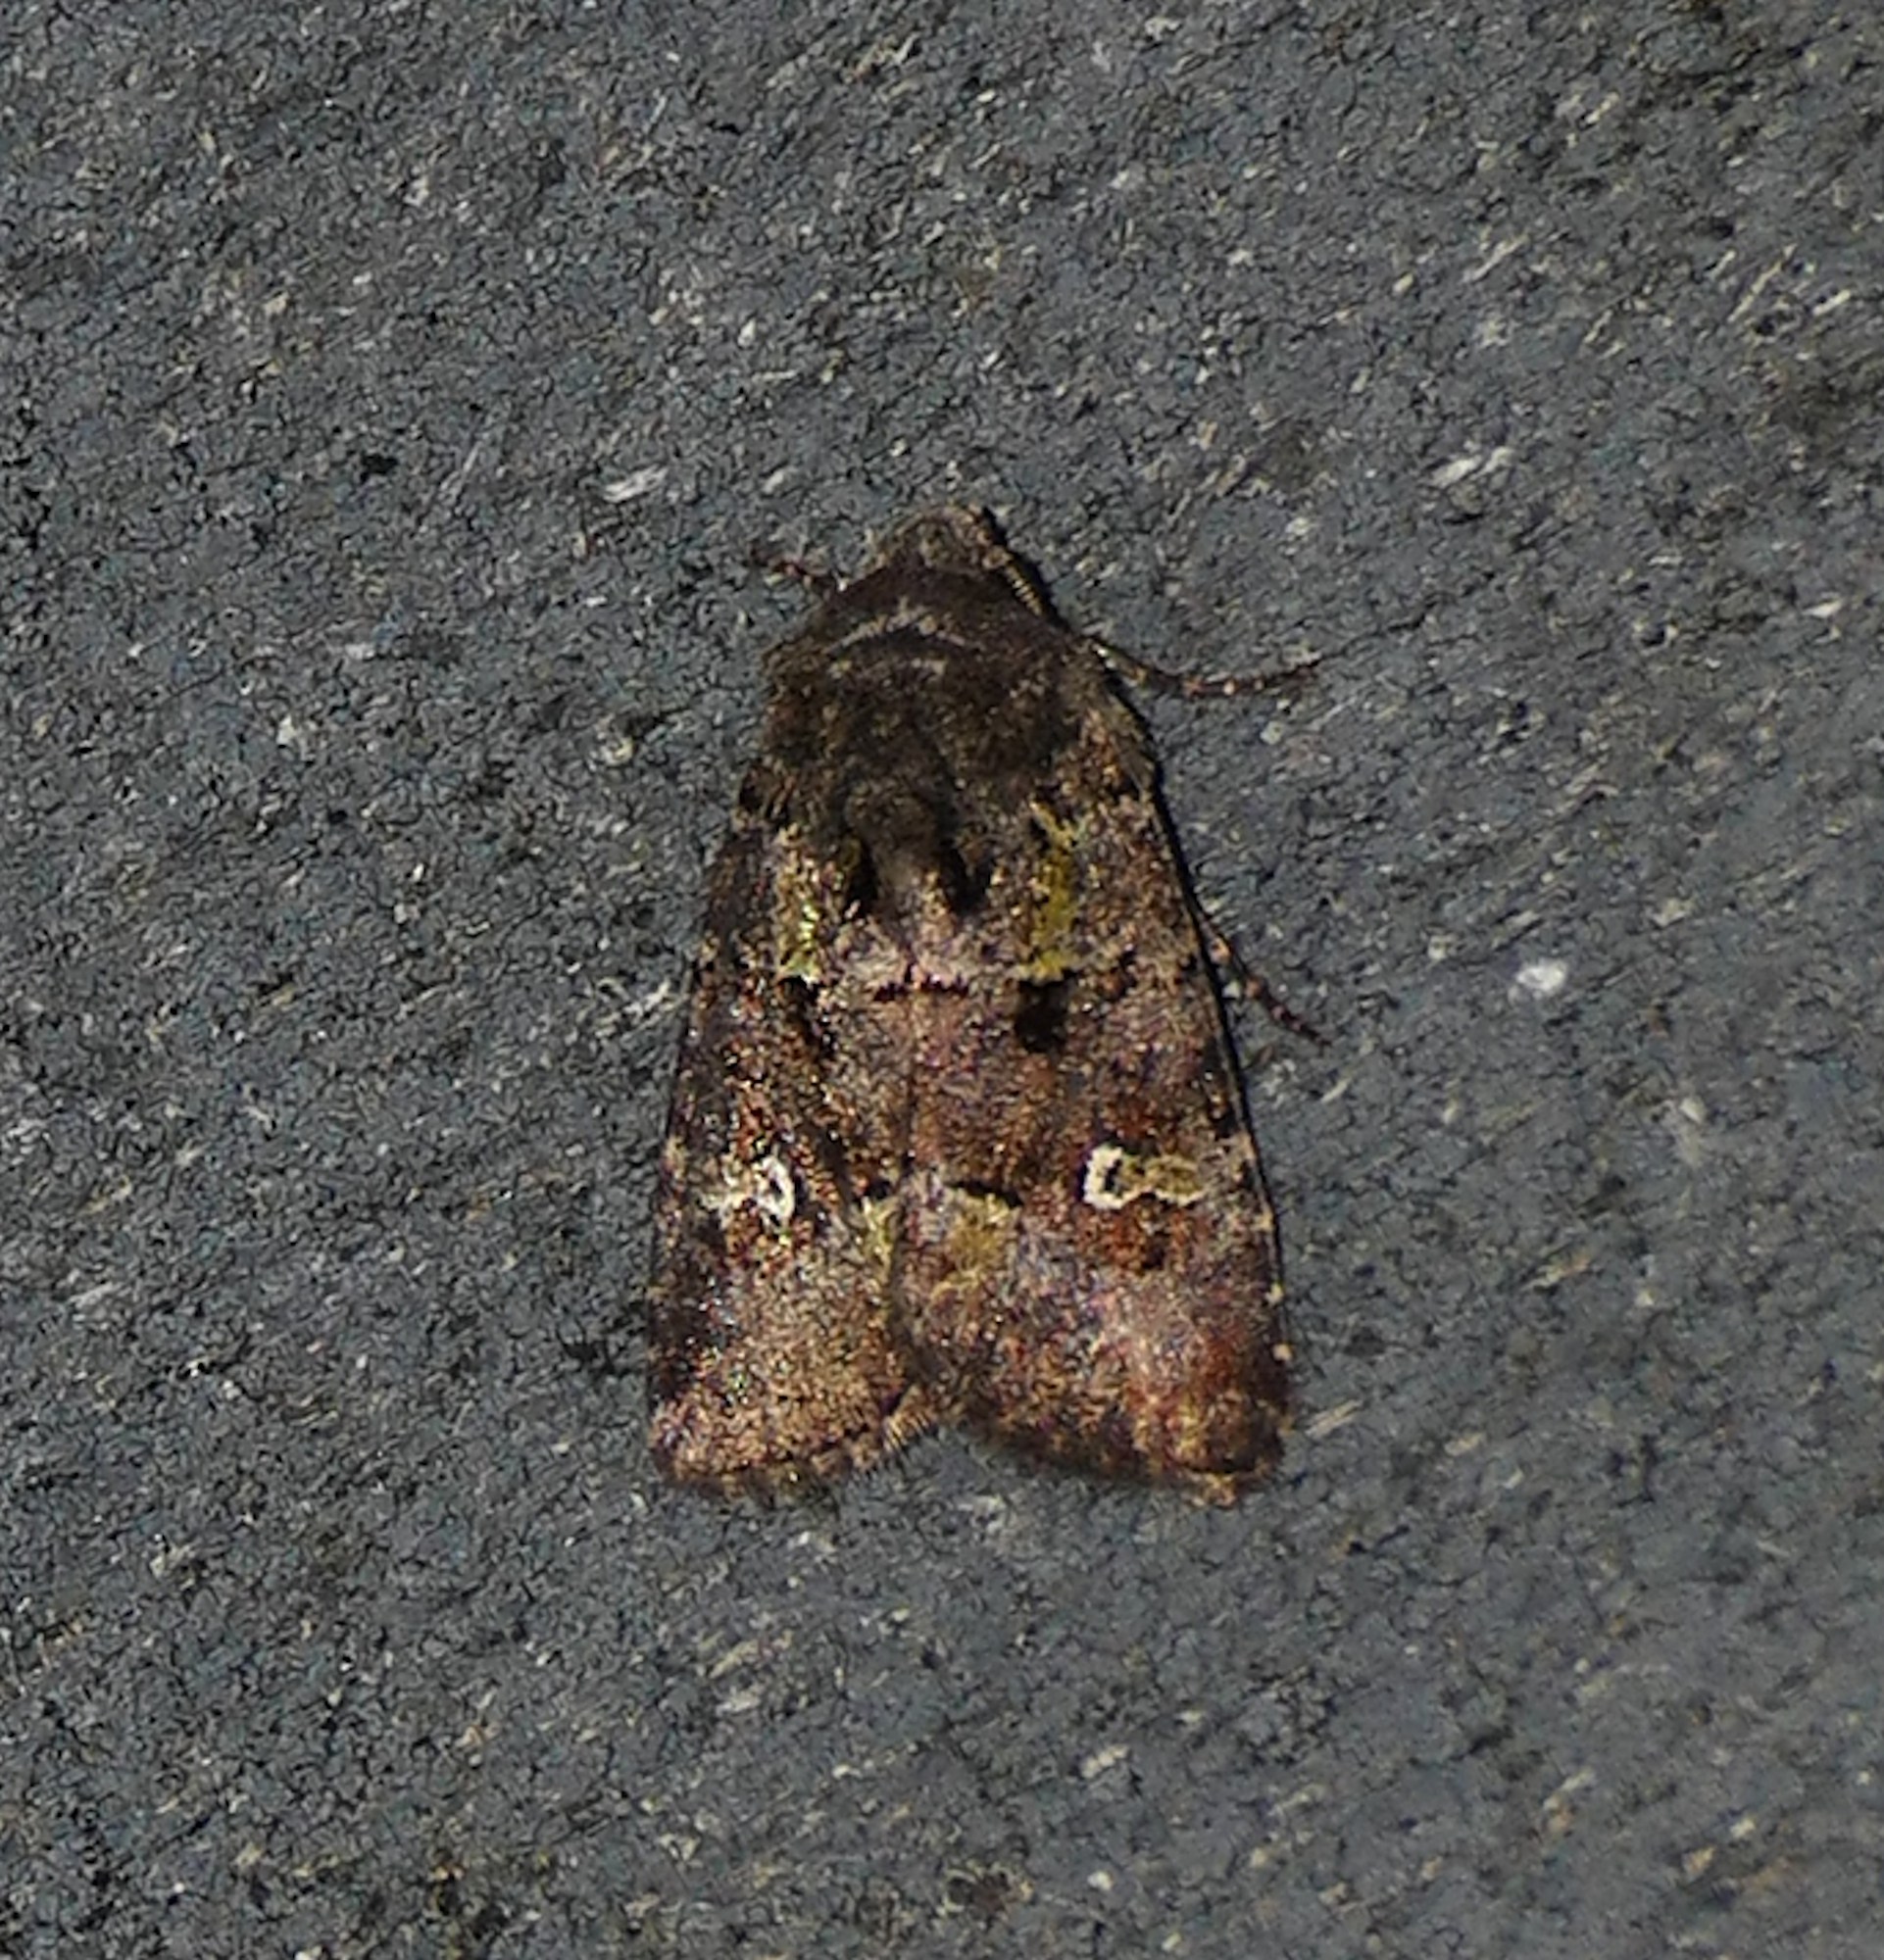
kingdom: Animalia
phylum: Arthropoda
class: Insecta
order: Lepidoptera
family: Noctuidae
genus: Lacinipolia
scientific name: Lacinipolia renigera
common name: Kidney-spotted minor
